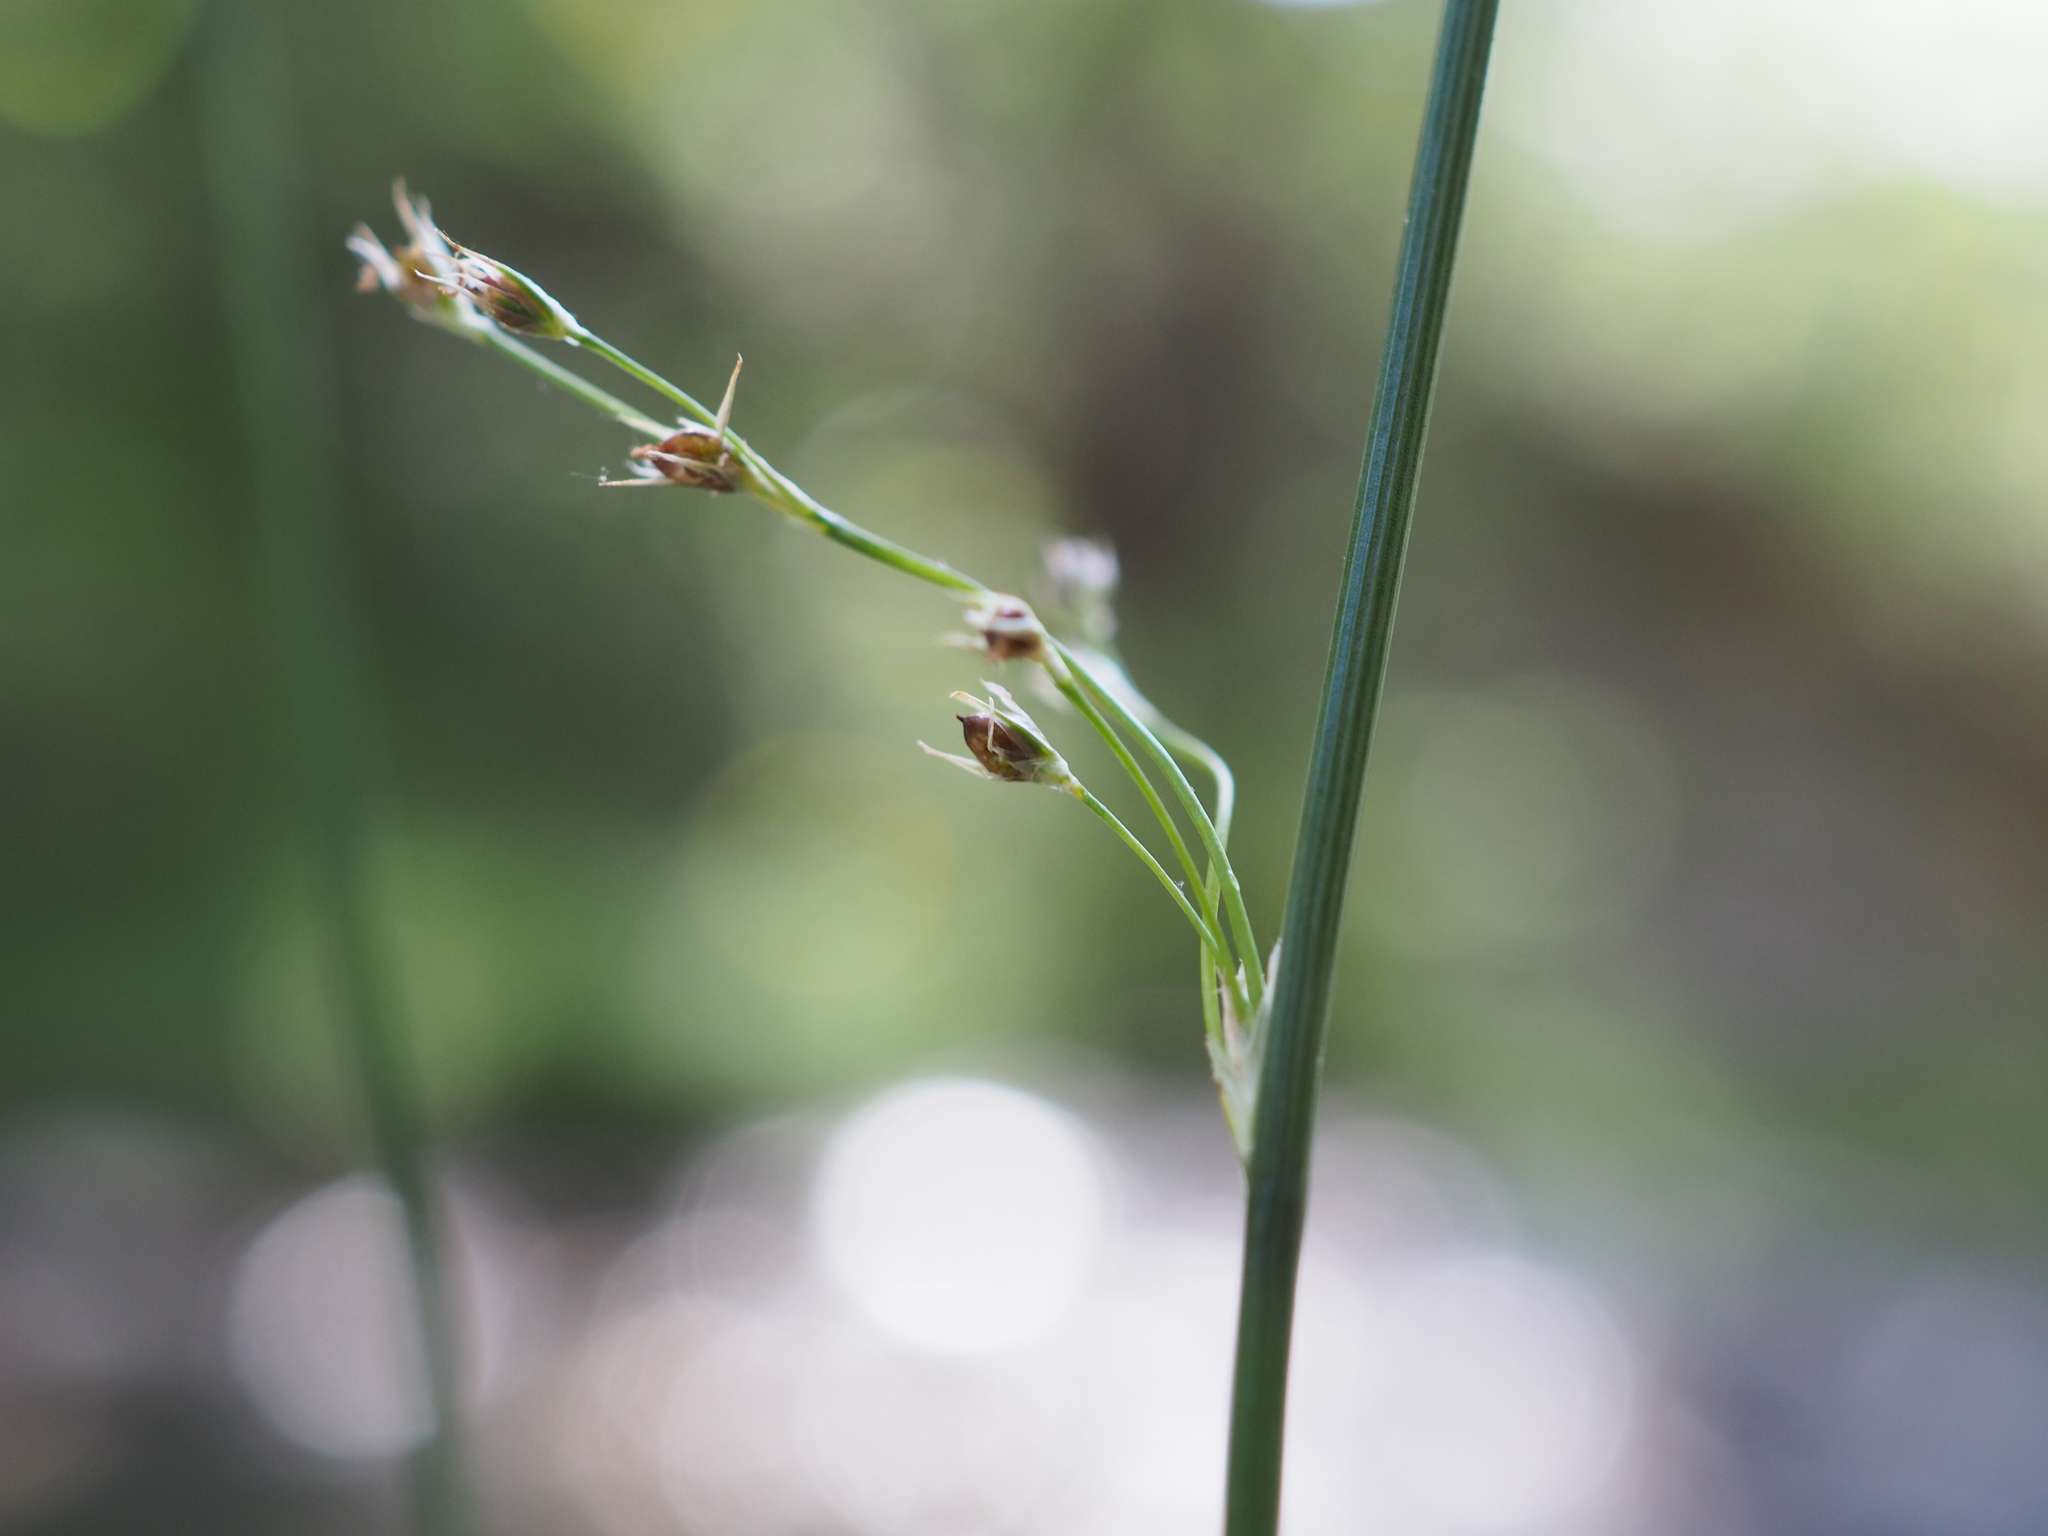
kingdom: Plantae
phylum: Tracheophyta
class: Liliopsida
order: Poales
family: Juncaceae
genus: Juncus
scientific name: Juncus inflexus
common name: Hard rush
